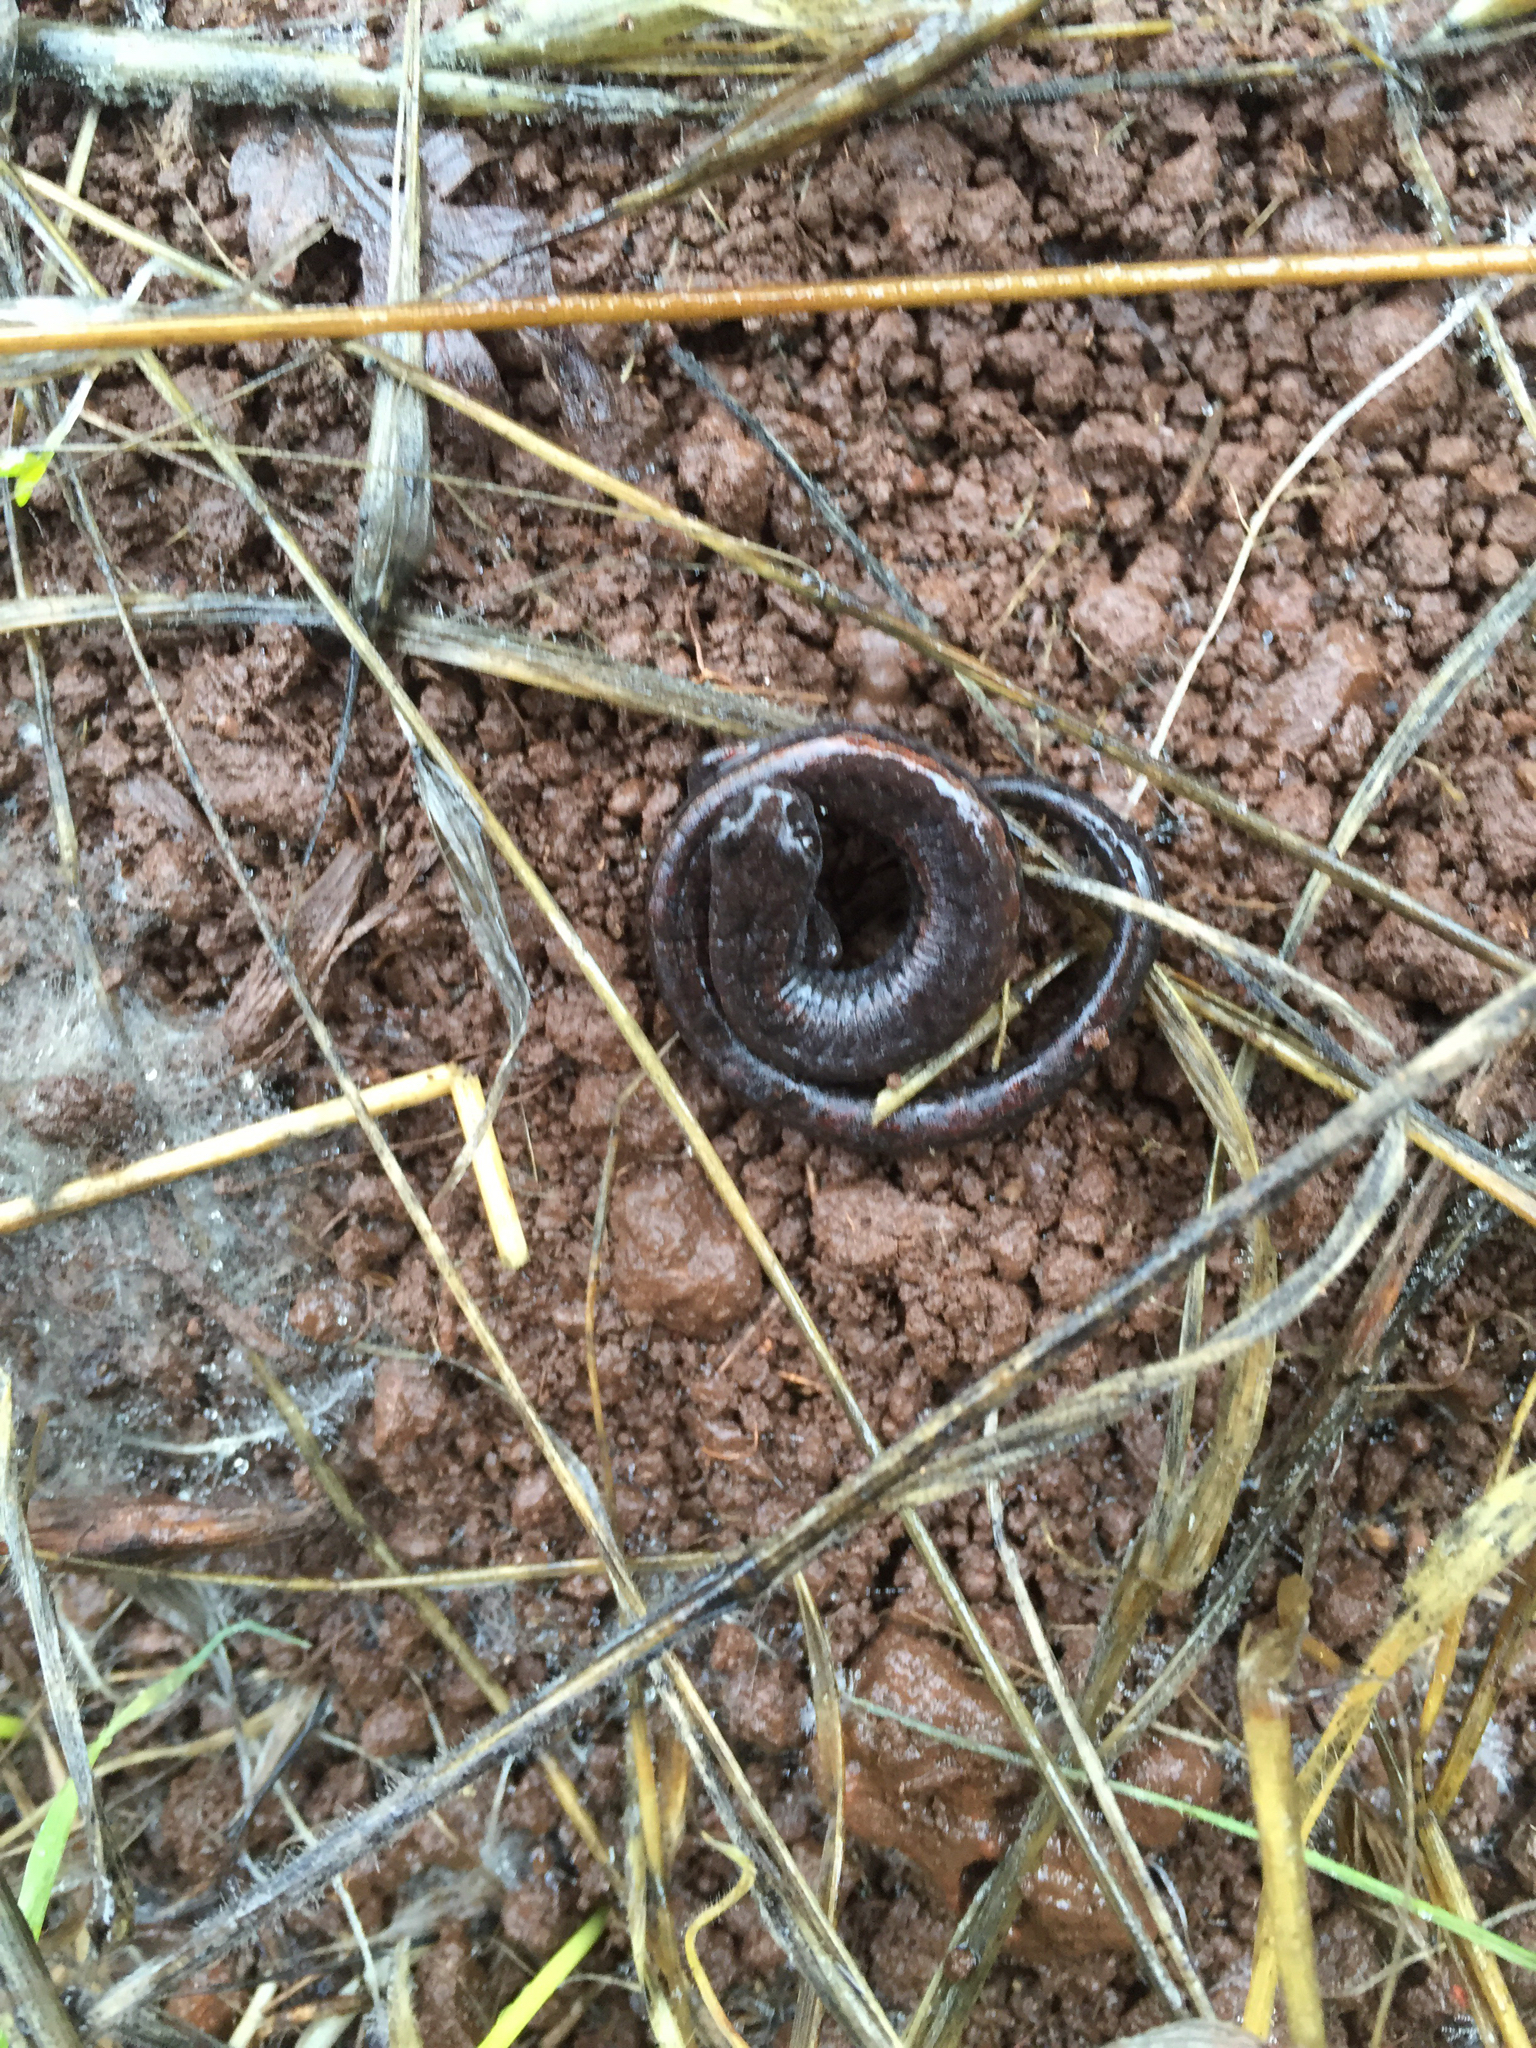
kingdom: Animalia
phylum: Chordata
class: Amphibia
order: Caudata
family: Plethodontidae
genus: Batrachoseps
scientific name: Batrachoseps attenuatus
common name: California slender salamander
